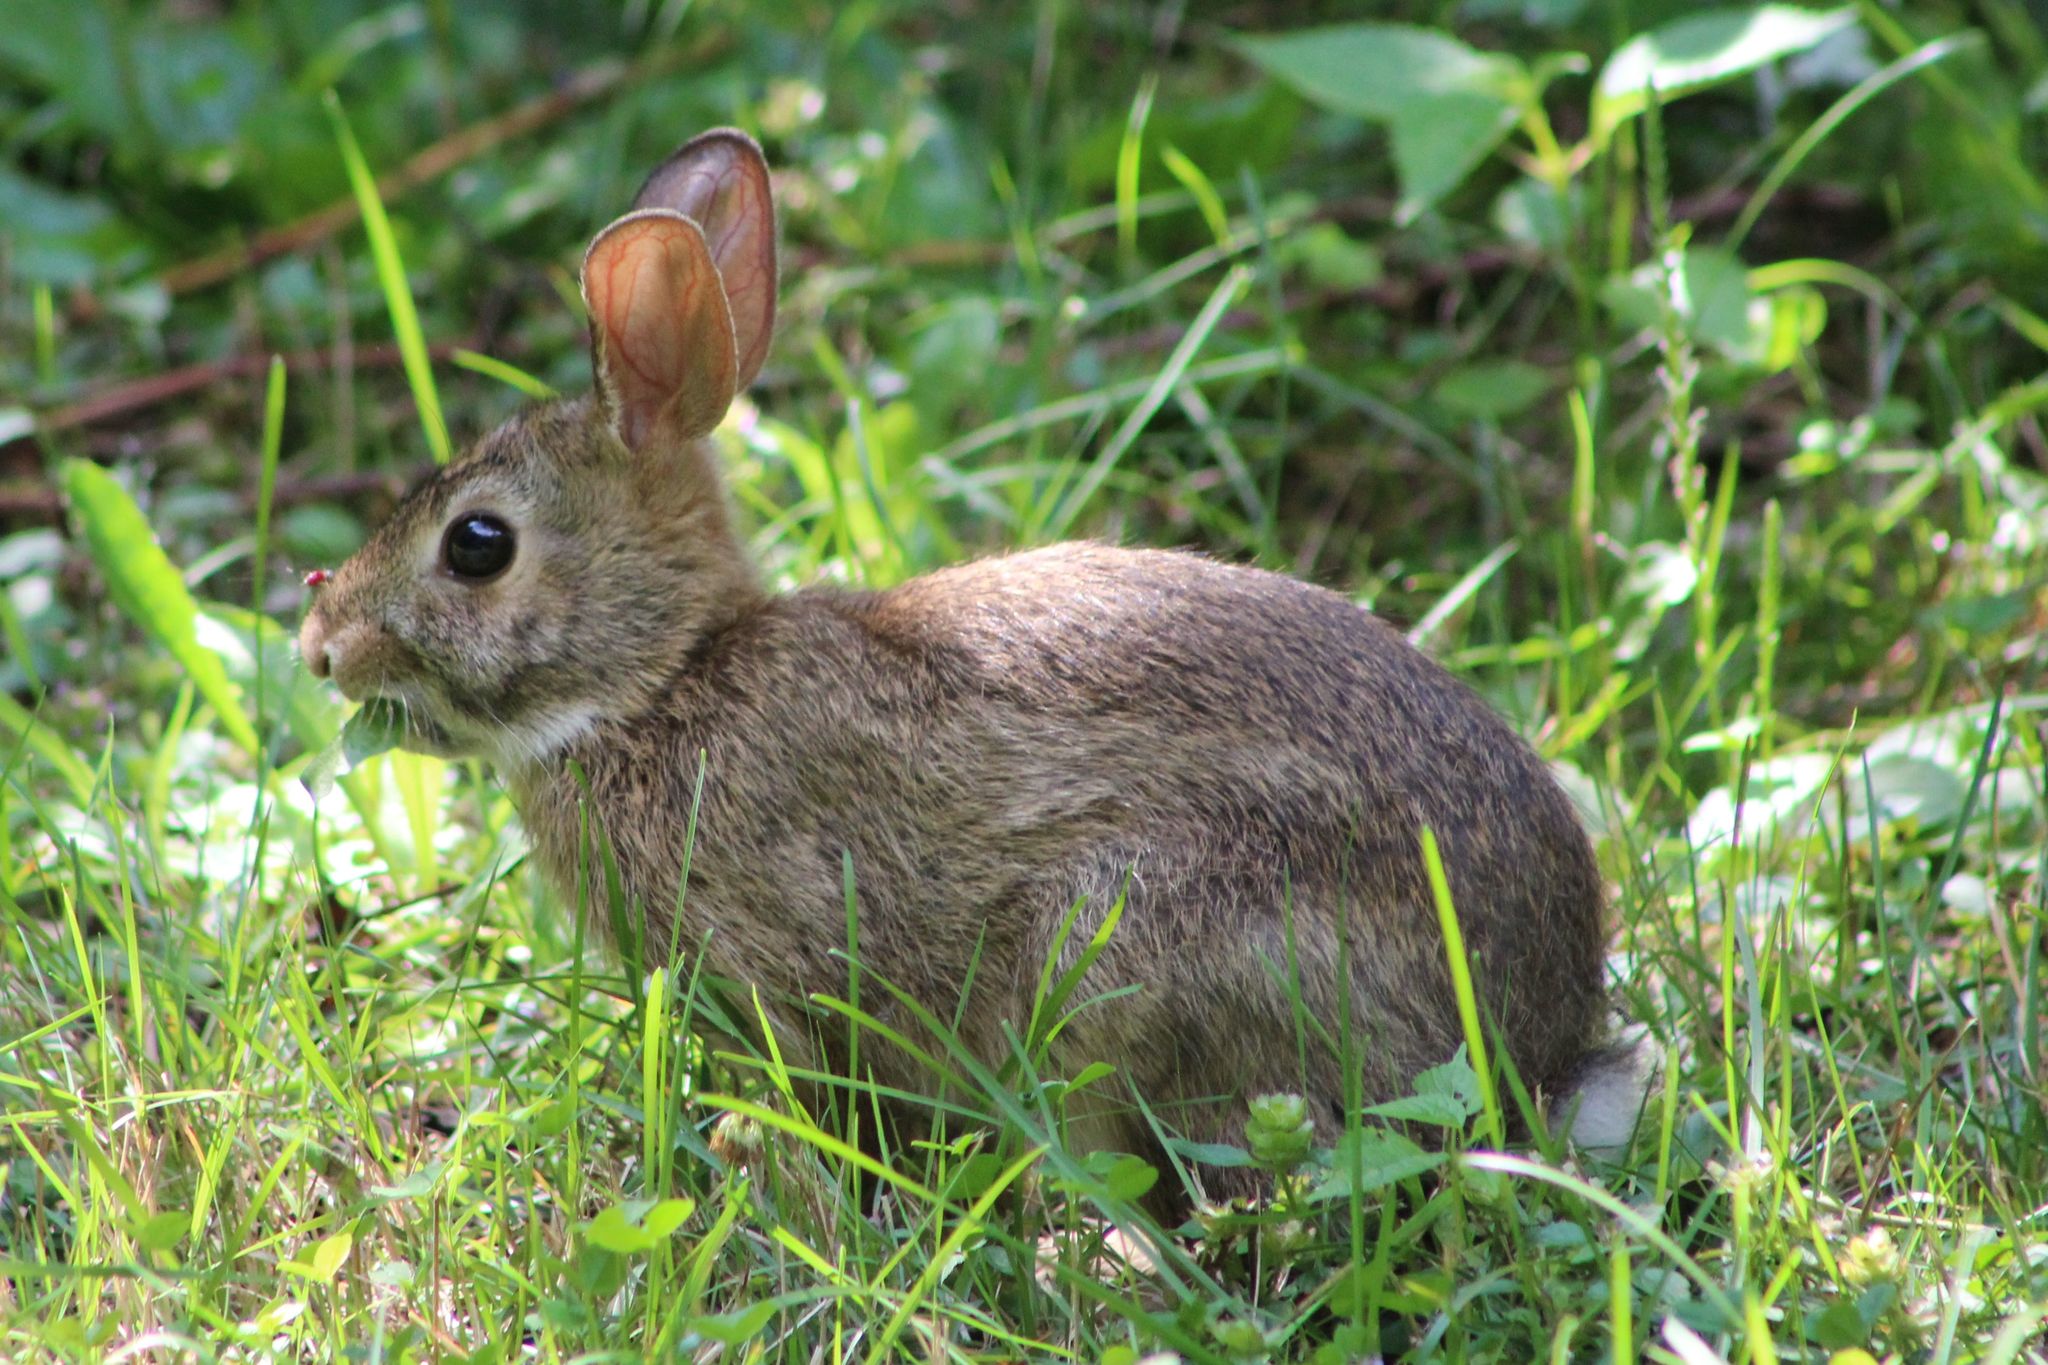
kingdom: Animalia
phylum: Chordata
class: Mammalia
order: Lagomorpha
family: Leporidae
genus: Sylvilagus
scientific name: Sylvilagus floridanus
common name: Eastern cottontail
